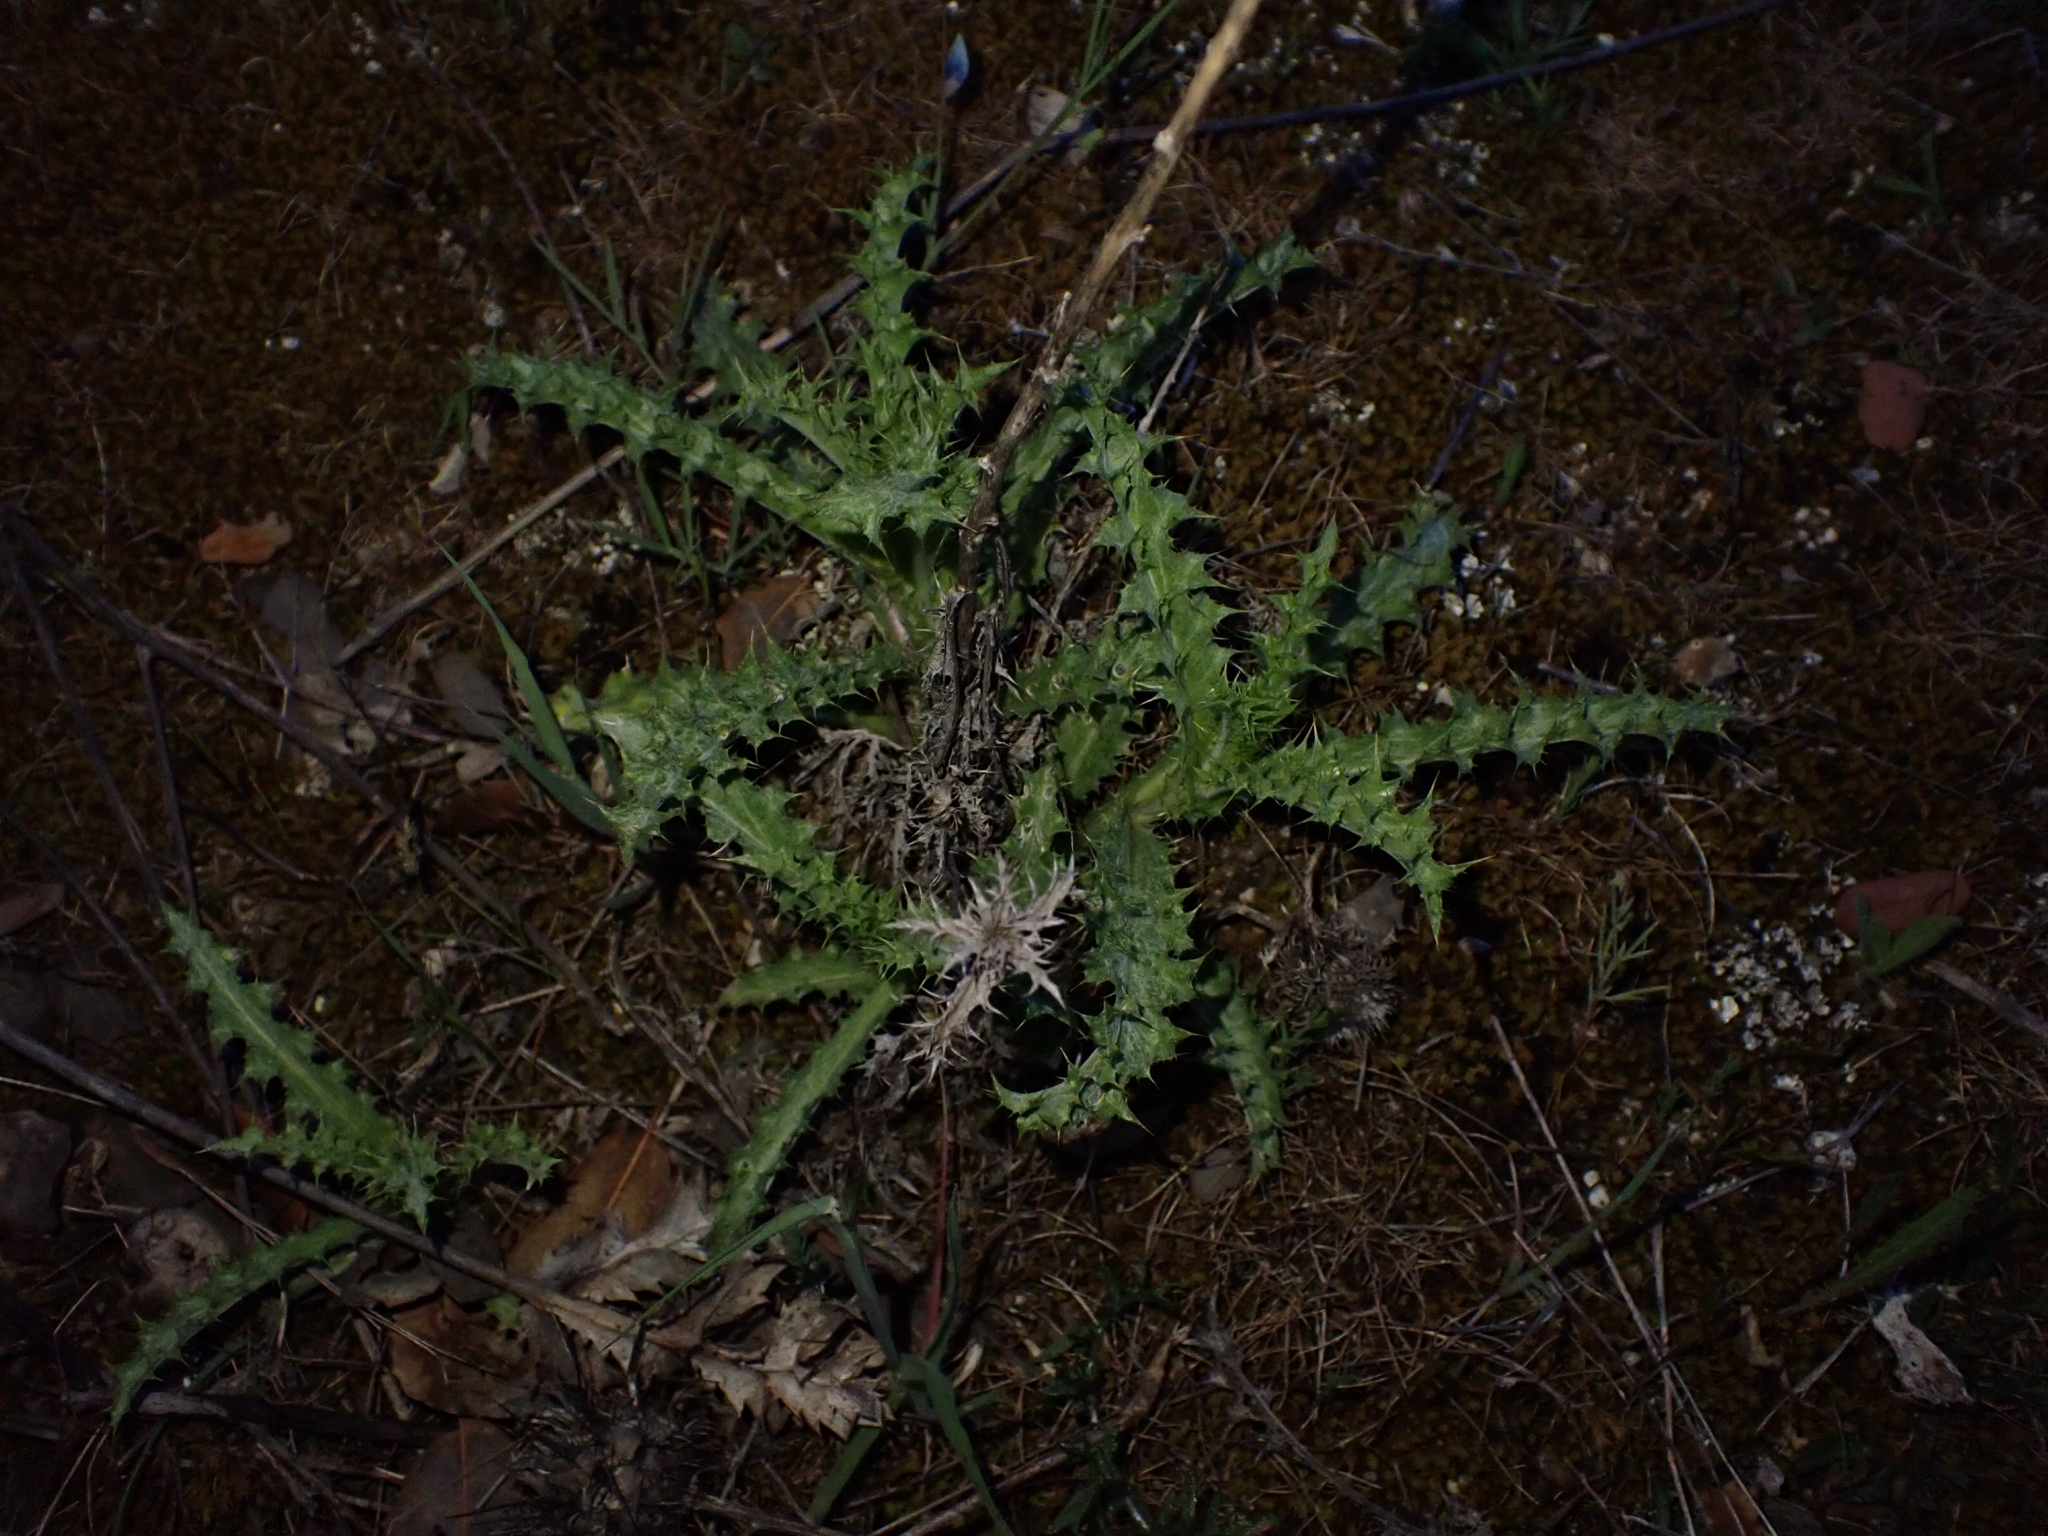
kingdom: Plantae
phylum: Tracheophyta
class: Magnoliopsida
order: Asterales
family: Asteraceae
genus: Carlina
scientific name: Carlina hispanica
